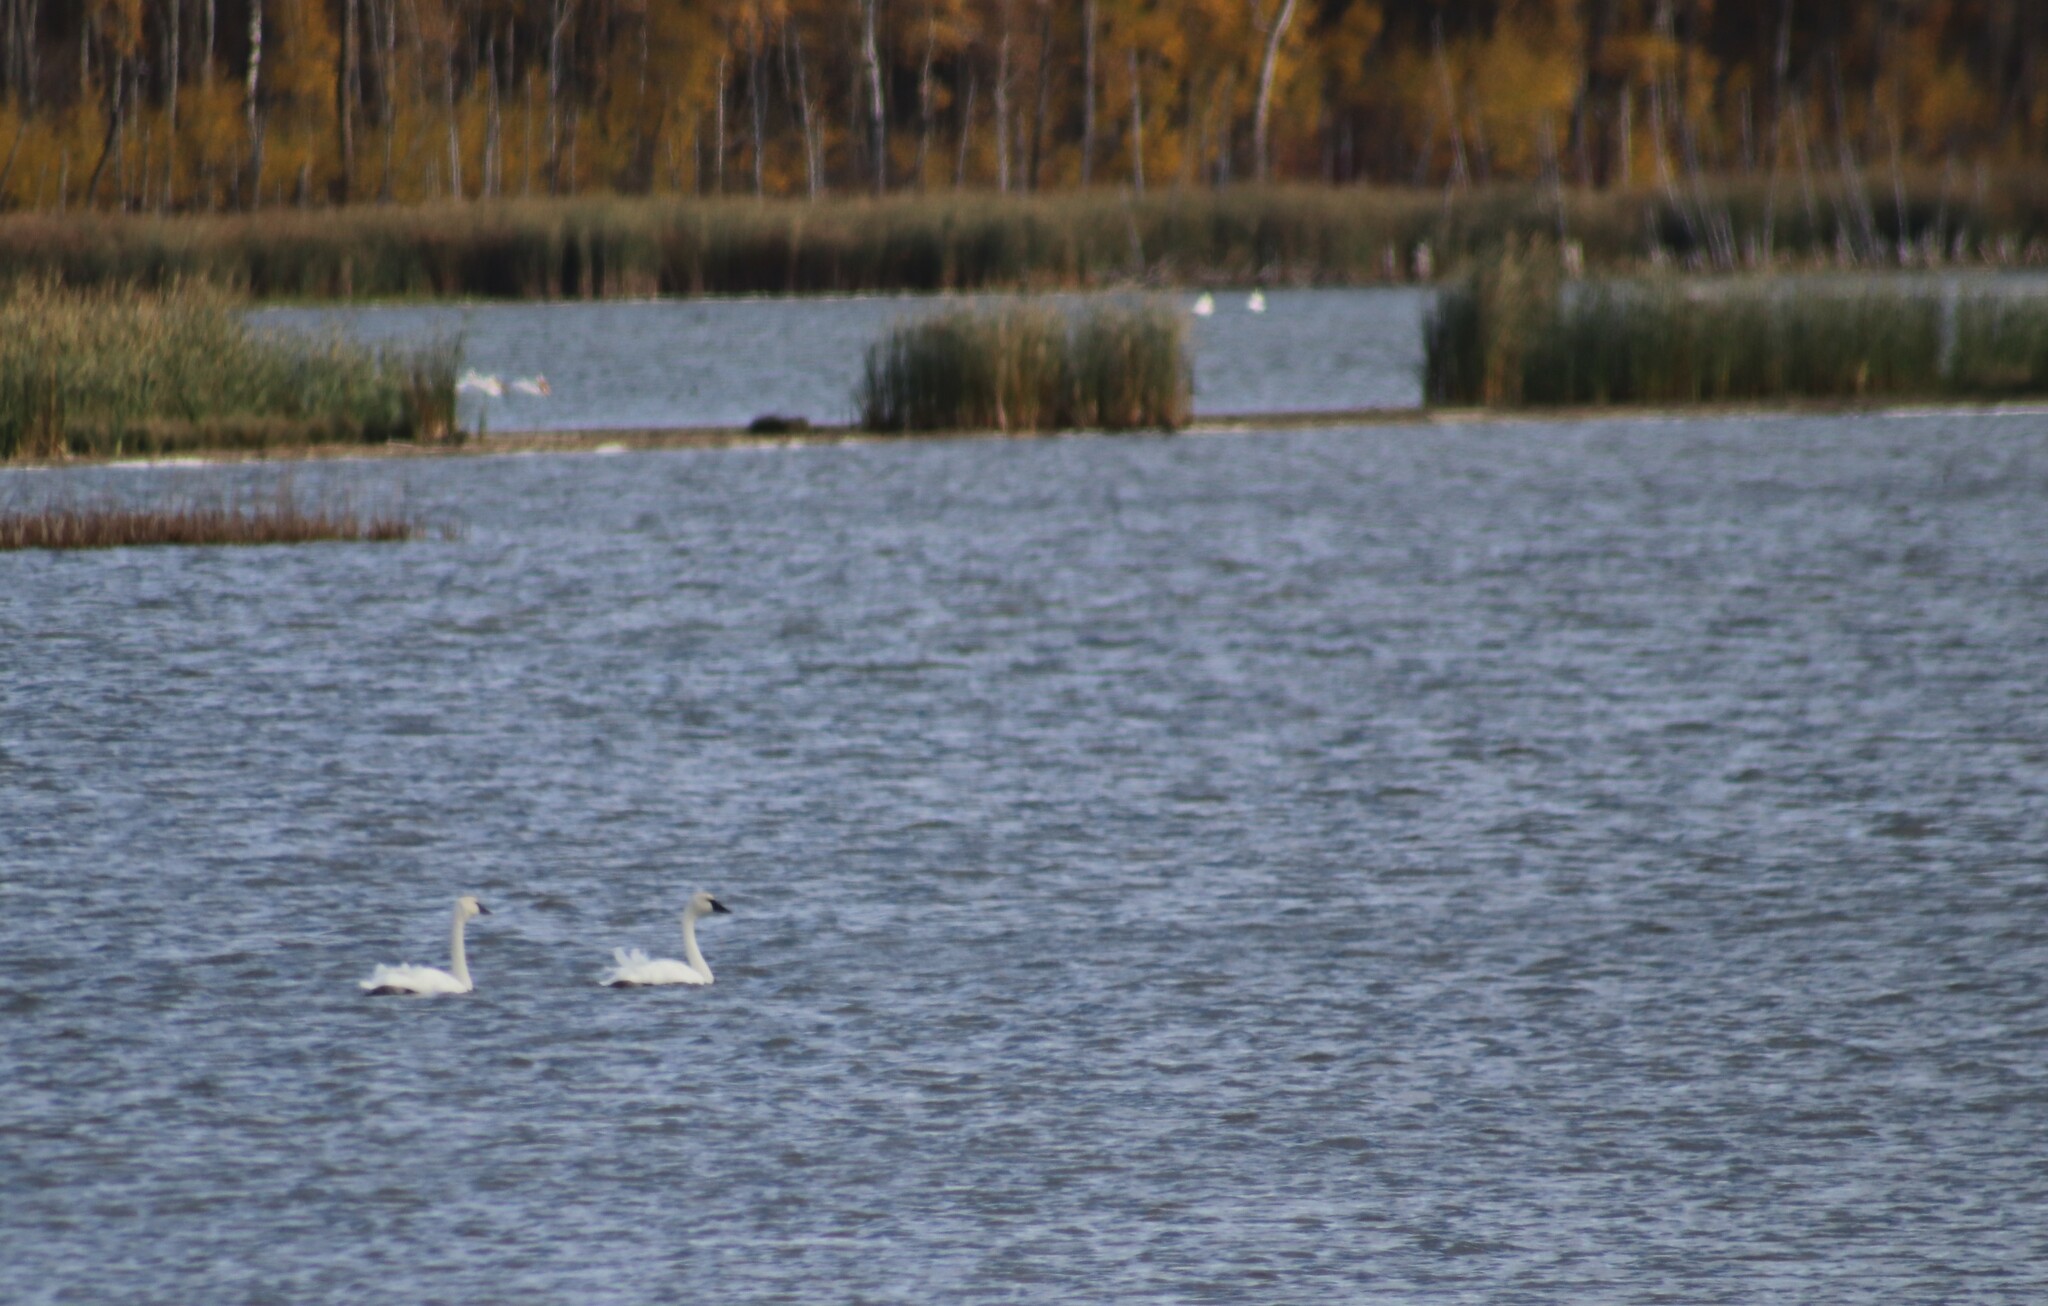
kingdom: Animalia
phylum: Chordata
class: Aves
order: Anseriformes
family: Anatidae
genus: Cygnus
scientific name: Cygnus buccinator
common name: Trumpeter swan
